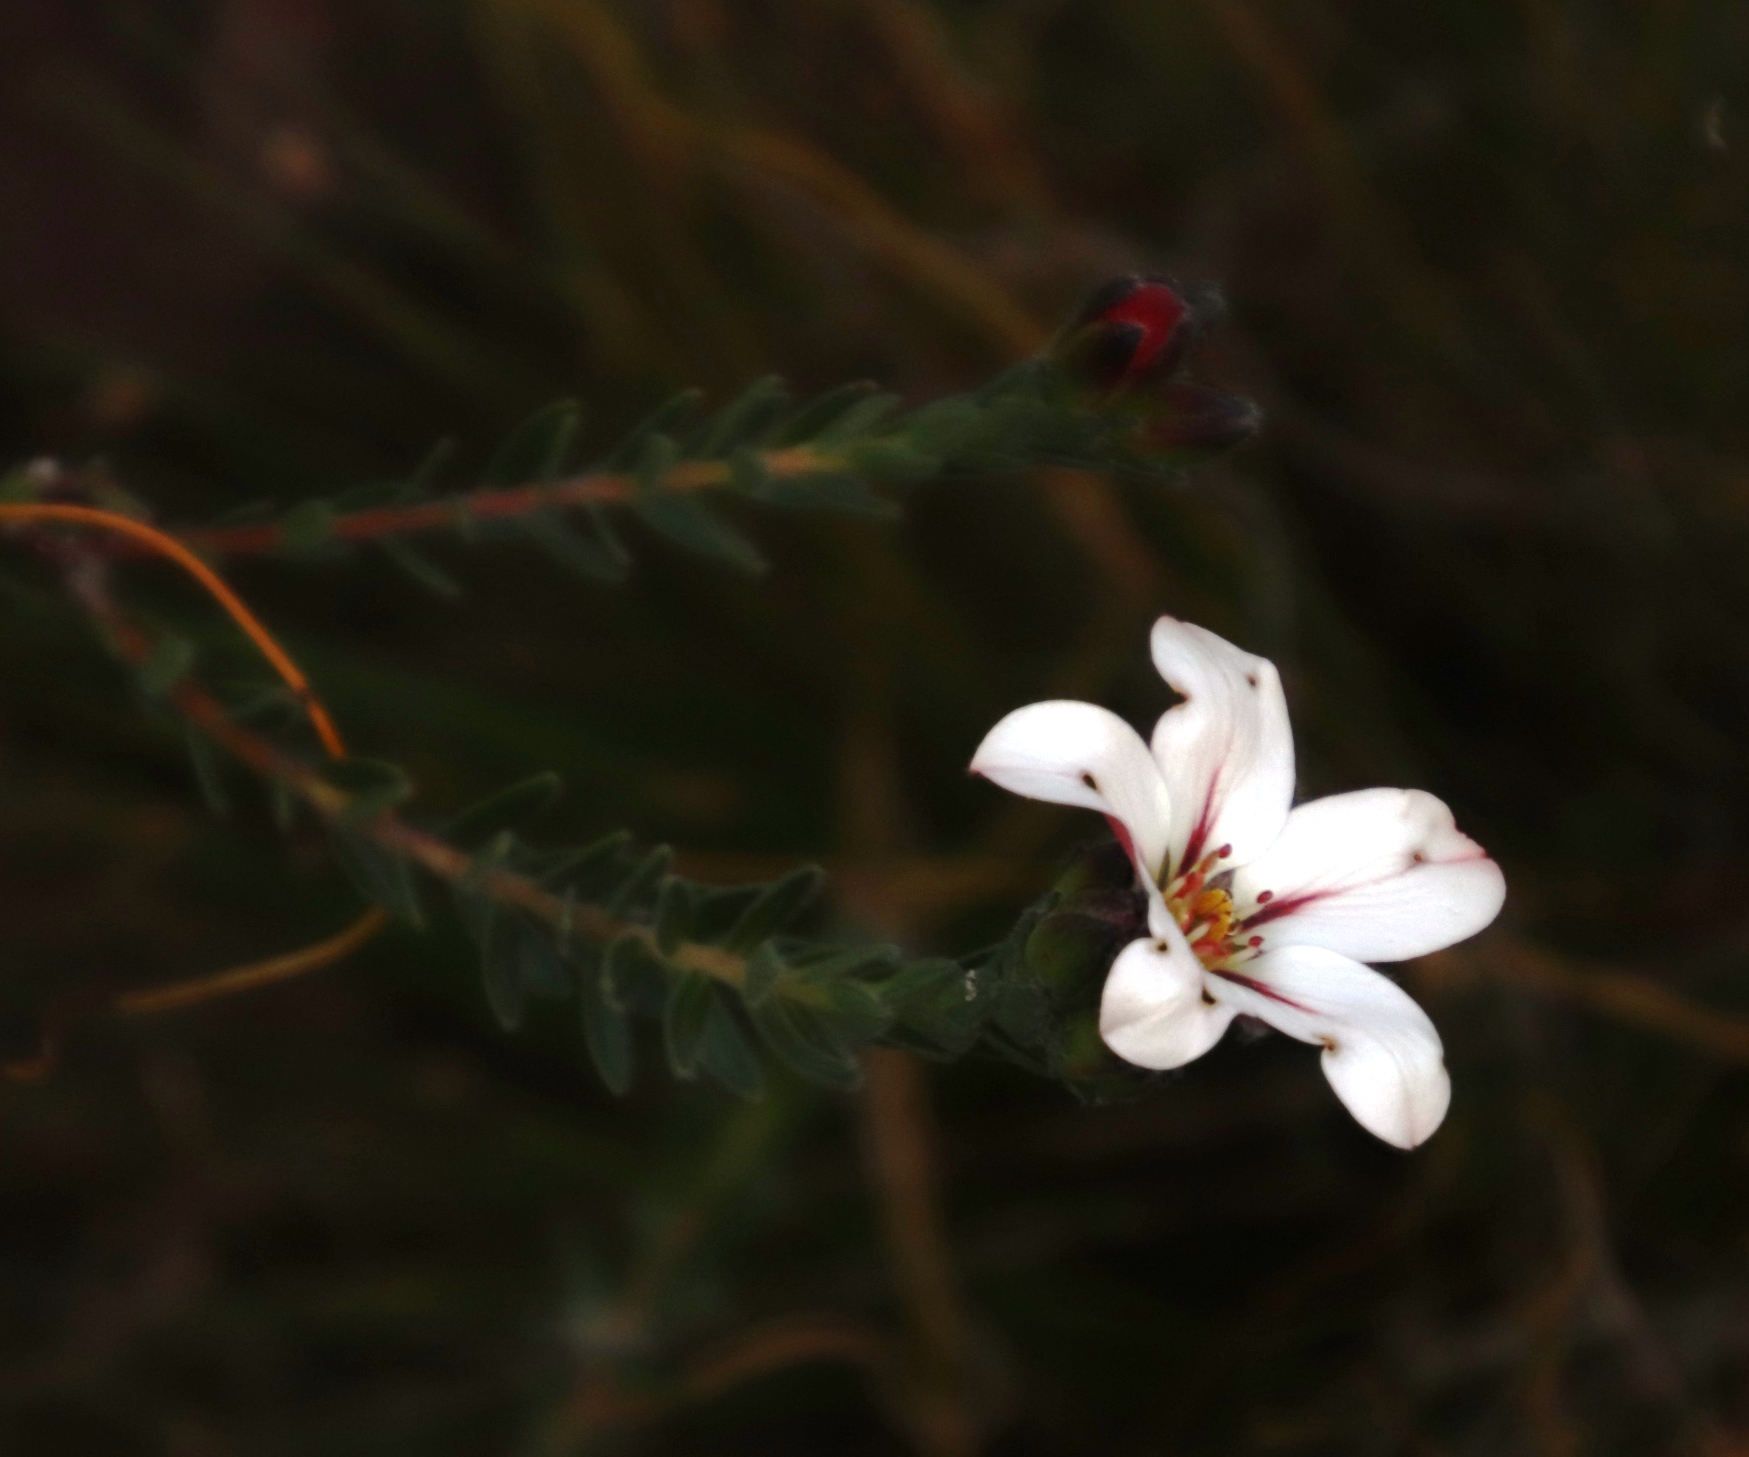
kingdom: Plantae
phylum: Tracheophyta
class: Magnoliopsida
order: Sapindales
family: Rutaceae
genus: Adenandra
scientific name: Adenandra villosa
